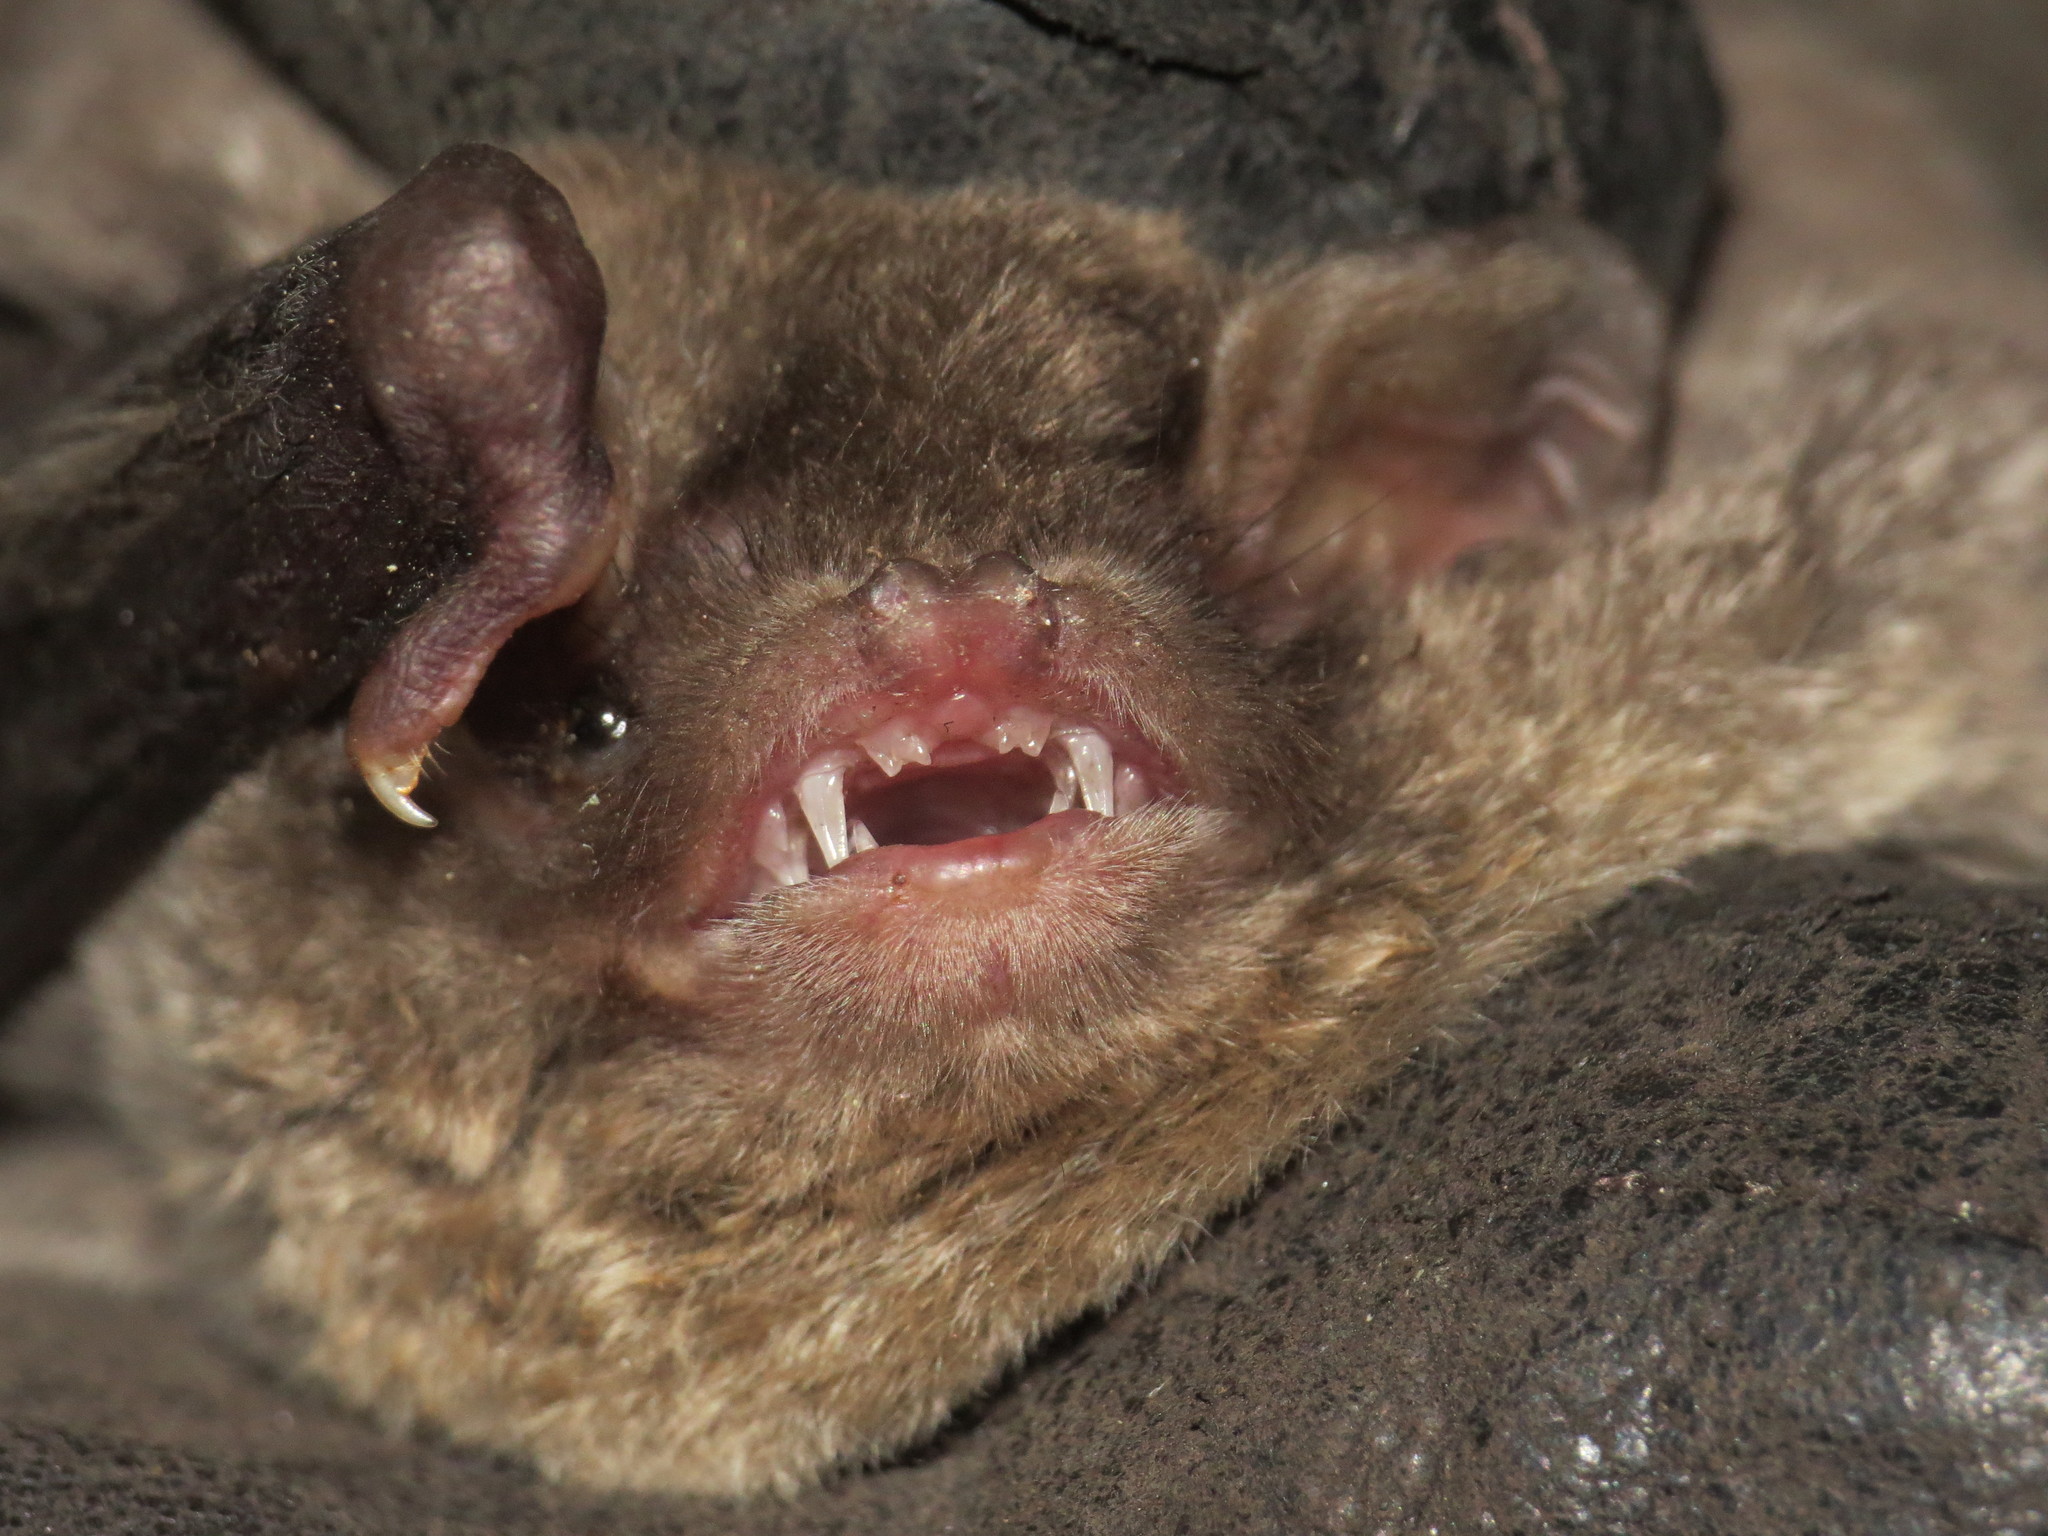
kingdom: Animalia
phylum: Chordata
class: Mammalia
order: Chiroptera
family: Miniopteridae
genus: Miniopterus
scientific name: Miniopterus schreibersii
